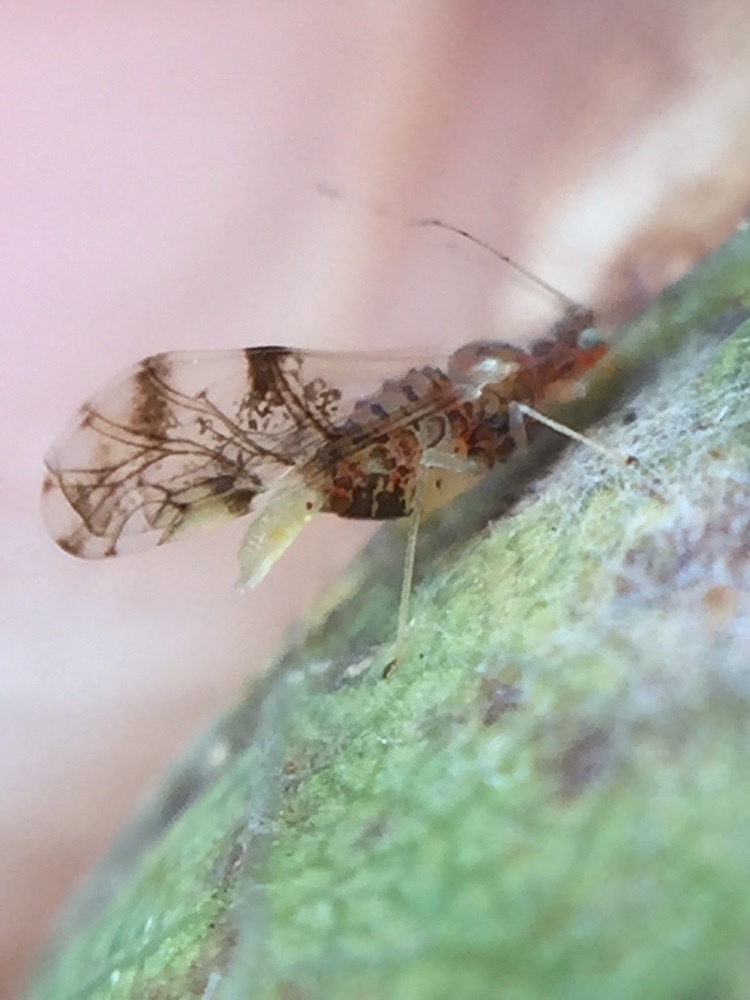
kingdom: Animalia
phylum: Arthropoda
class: Insecta
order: Hemiptera
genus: Neomyzocallis
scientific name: Neomyzocallis
